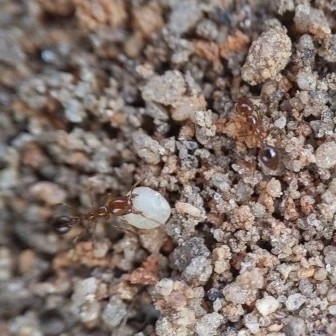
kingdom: Animalia
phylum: Arthropoda
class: Insecta
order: Hymenoptera
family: Formicidae
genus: Solenopsis
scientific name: Solenopsis invicta
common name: Red imported fire ant
